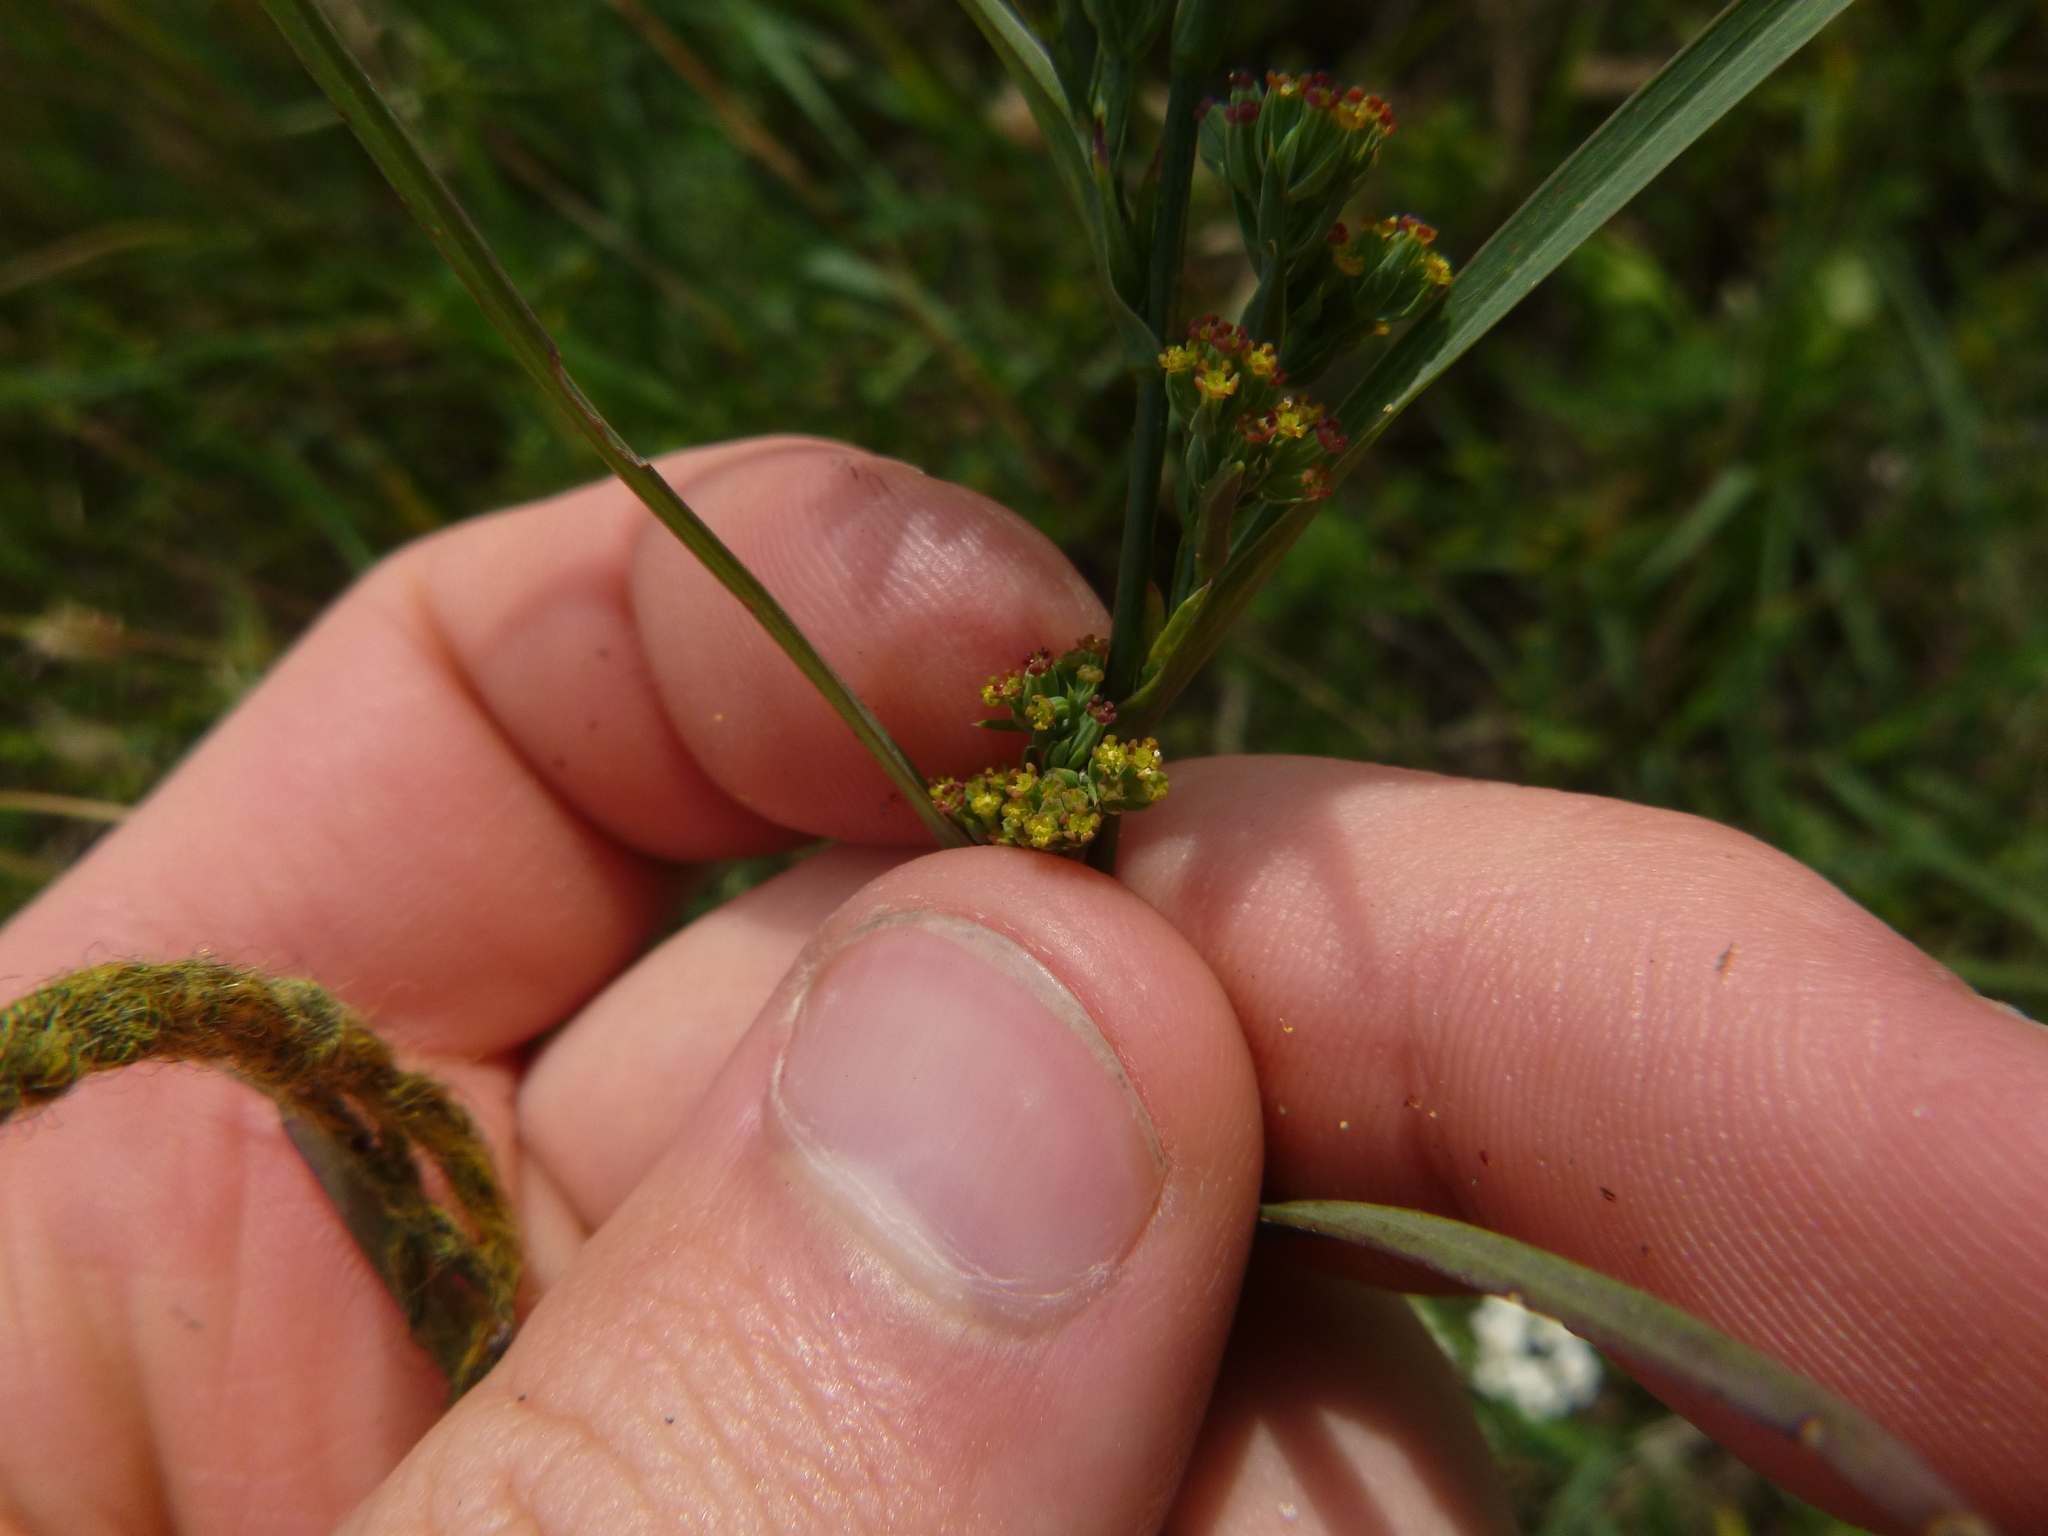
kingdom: Plantae
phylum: Tracheophyta
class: Magnoliopsida
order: Apiales
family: Apiaceae
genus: Bupleurum
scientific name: Bupleurum affine
